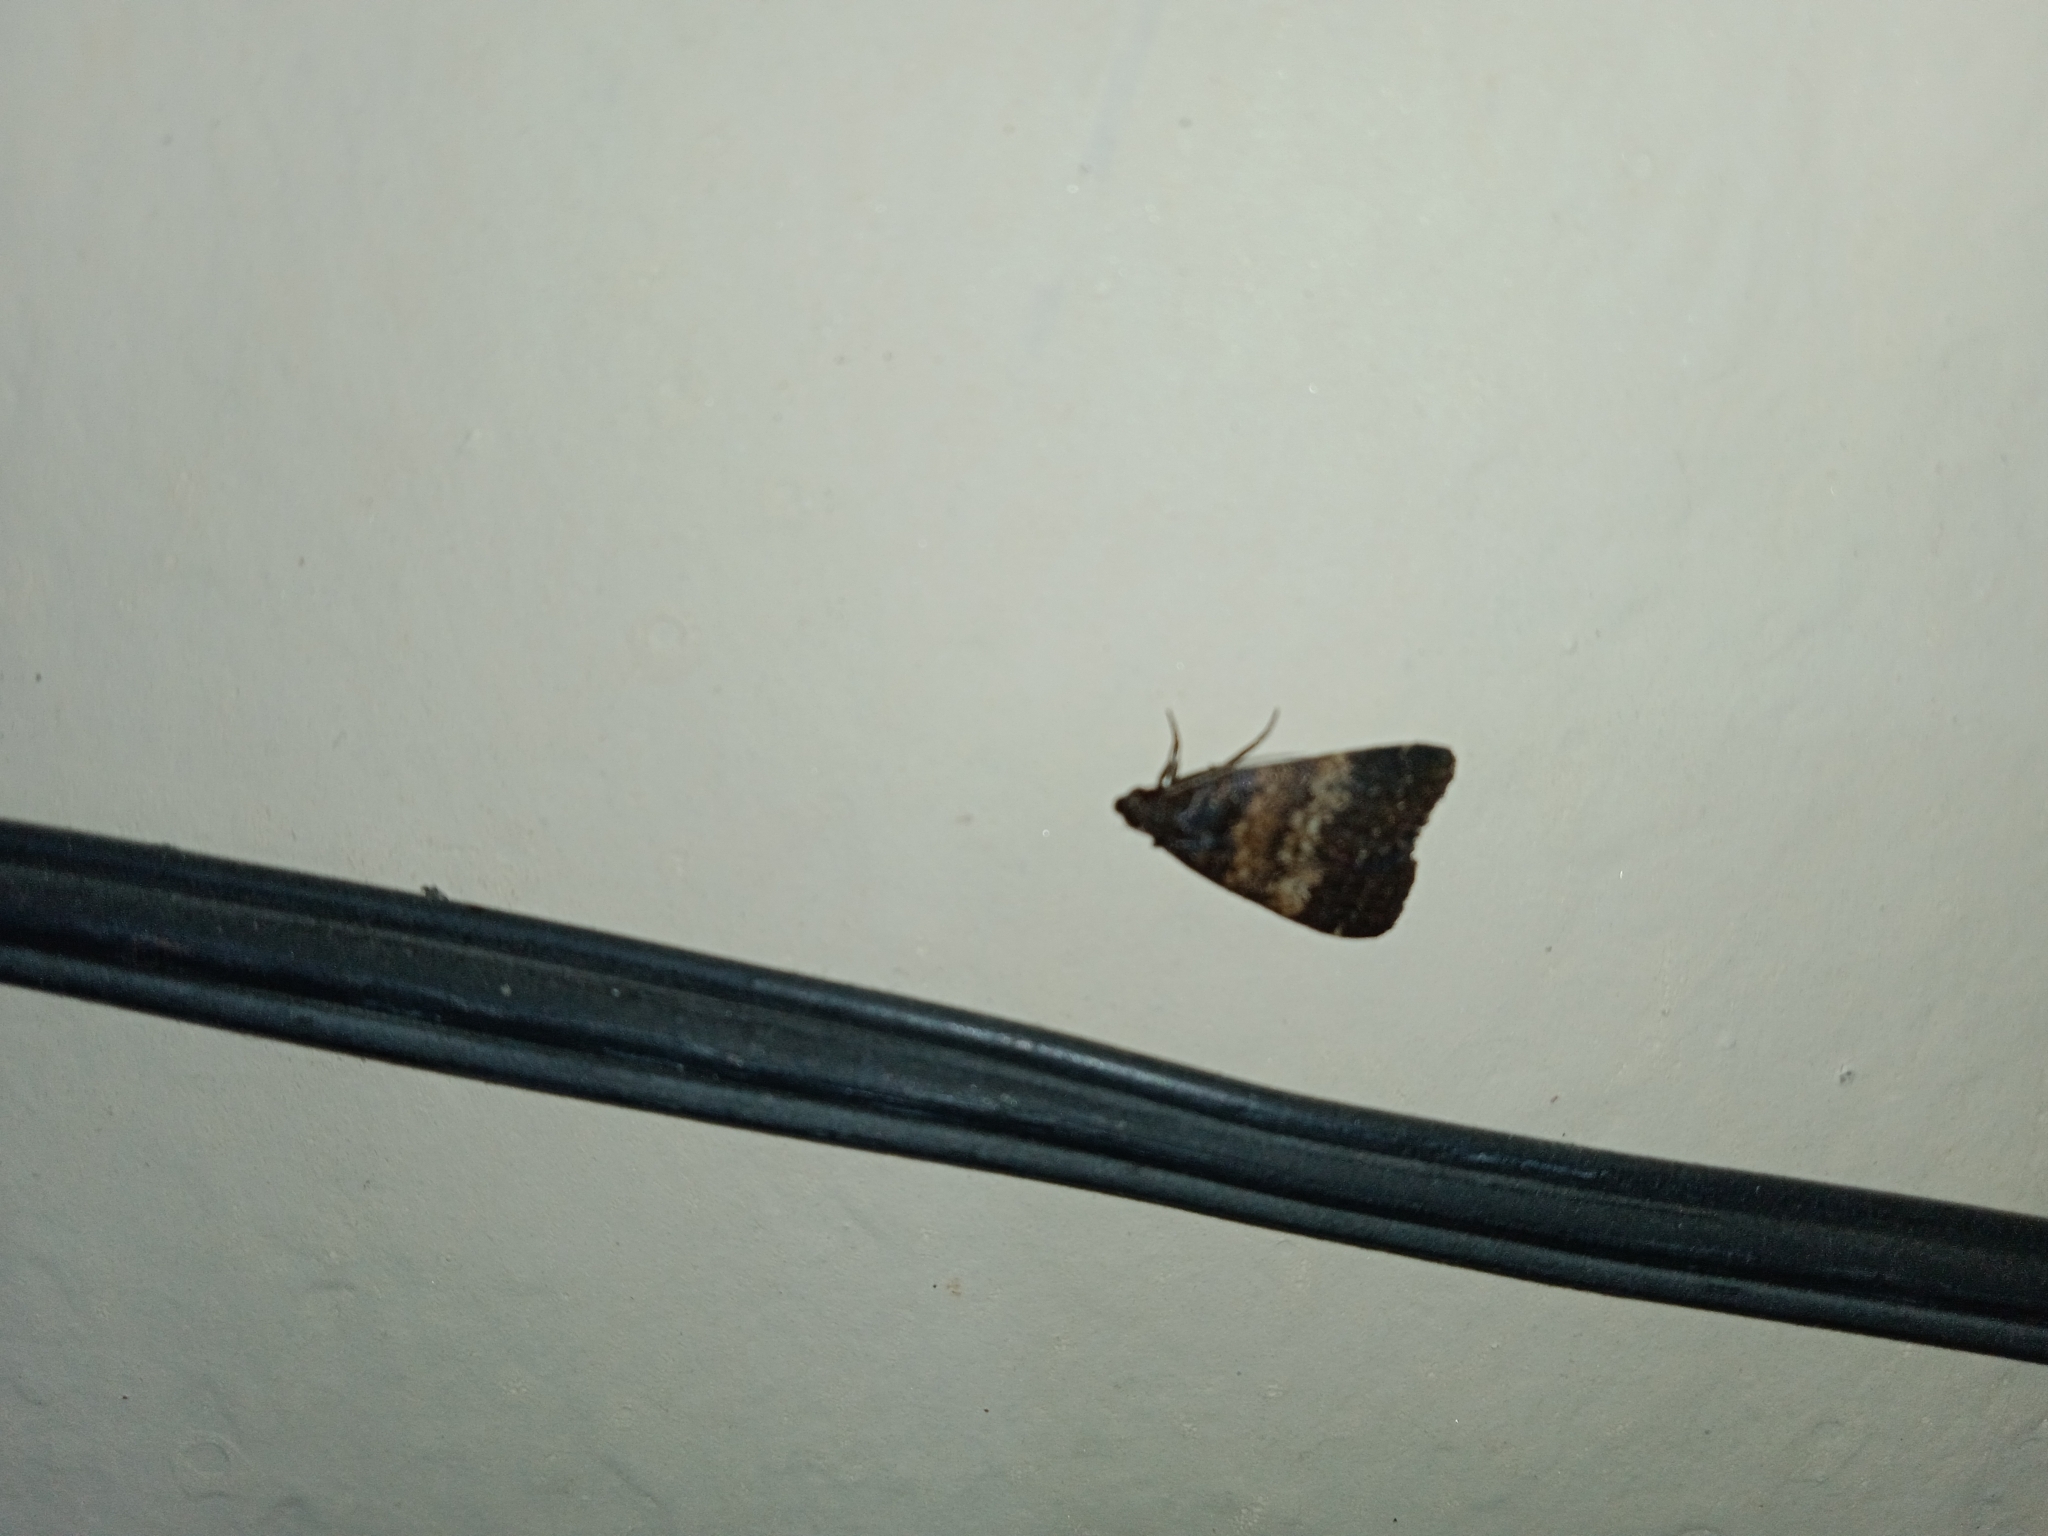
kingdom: Animalia
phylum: Arthropoda
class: Insecta
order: Lepidoptera
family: Erebidae
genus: Hydrillodes
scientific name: Hydrillodes lentalis
